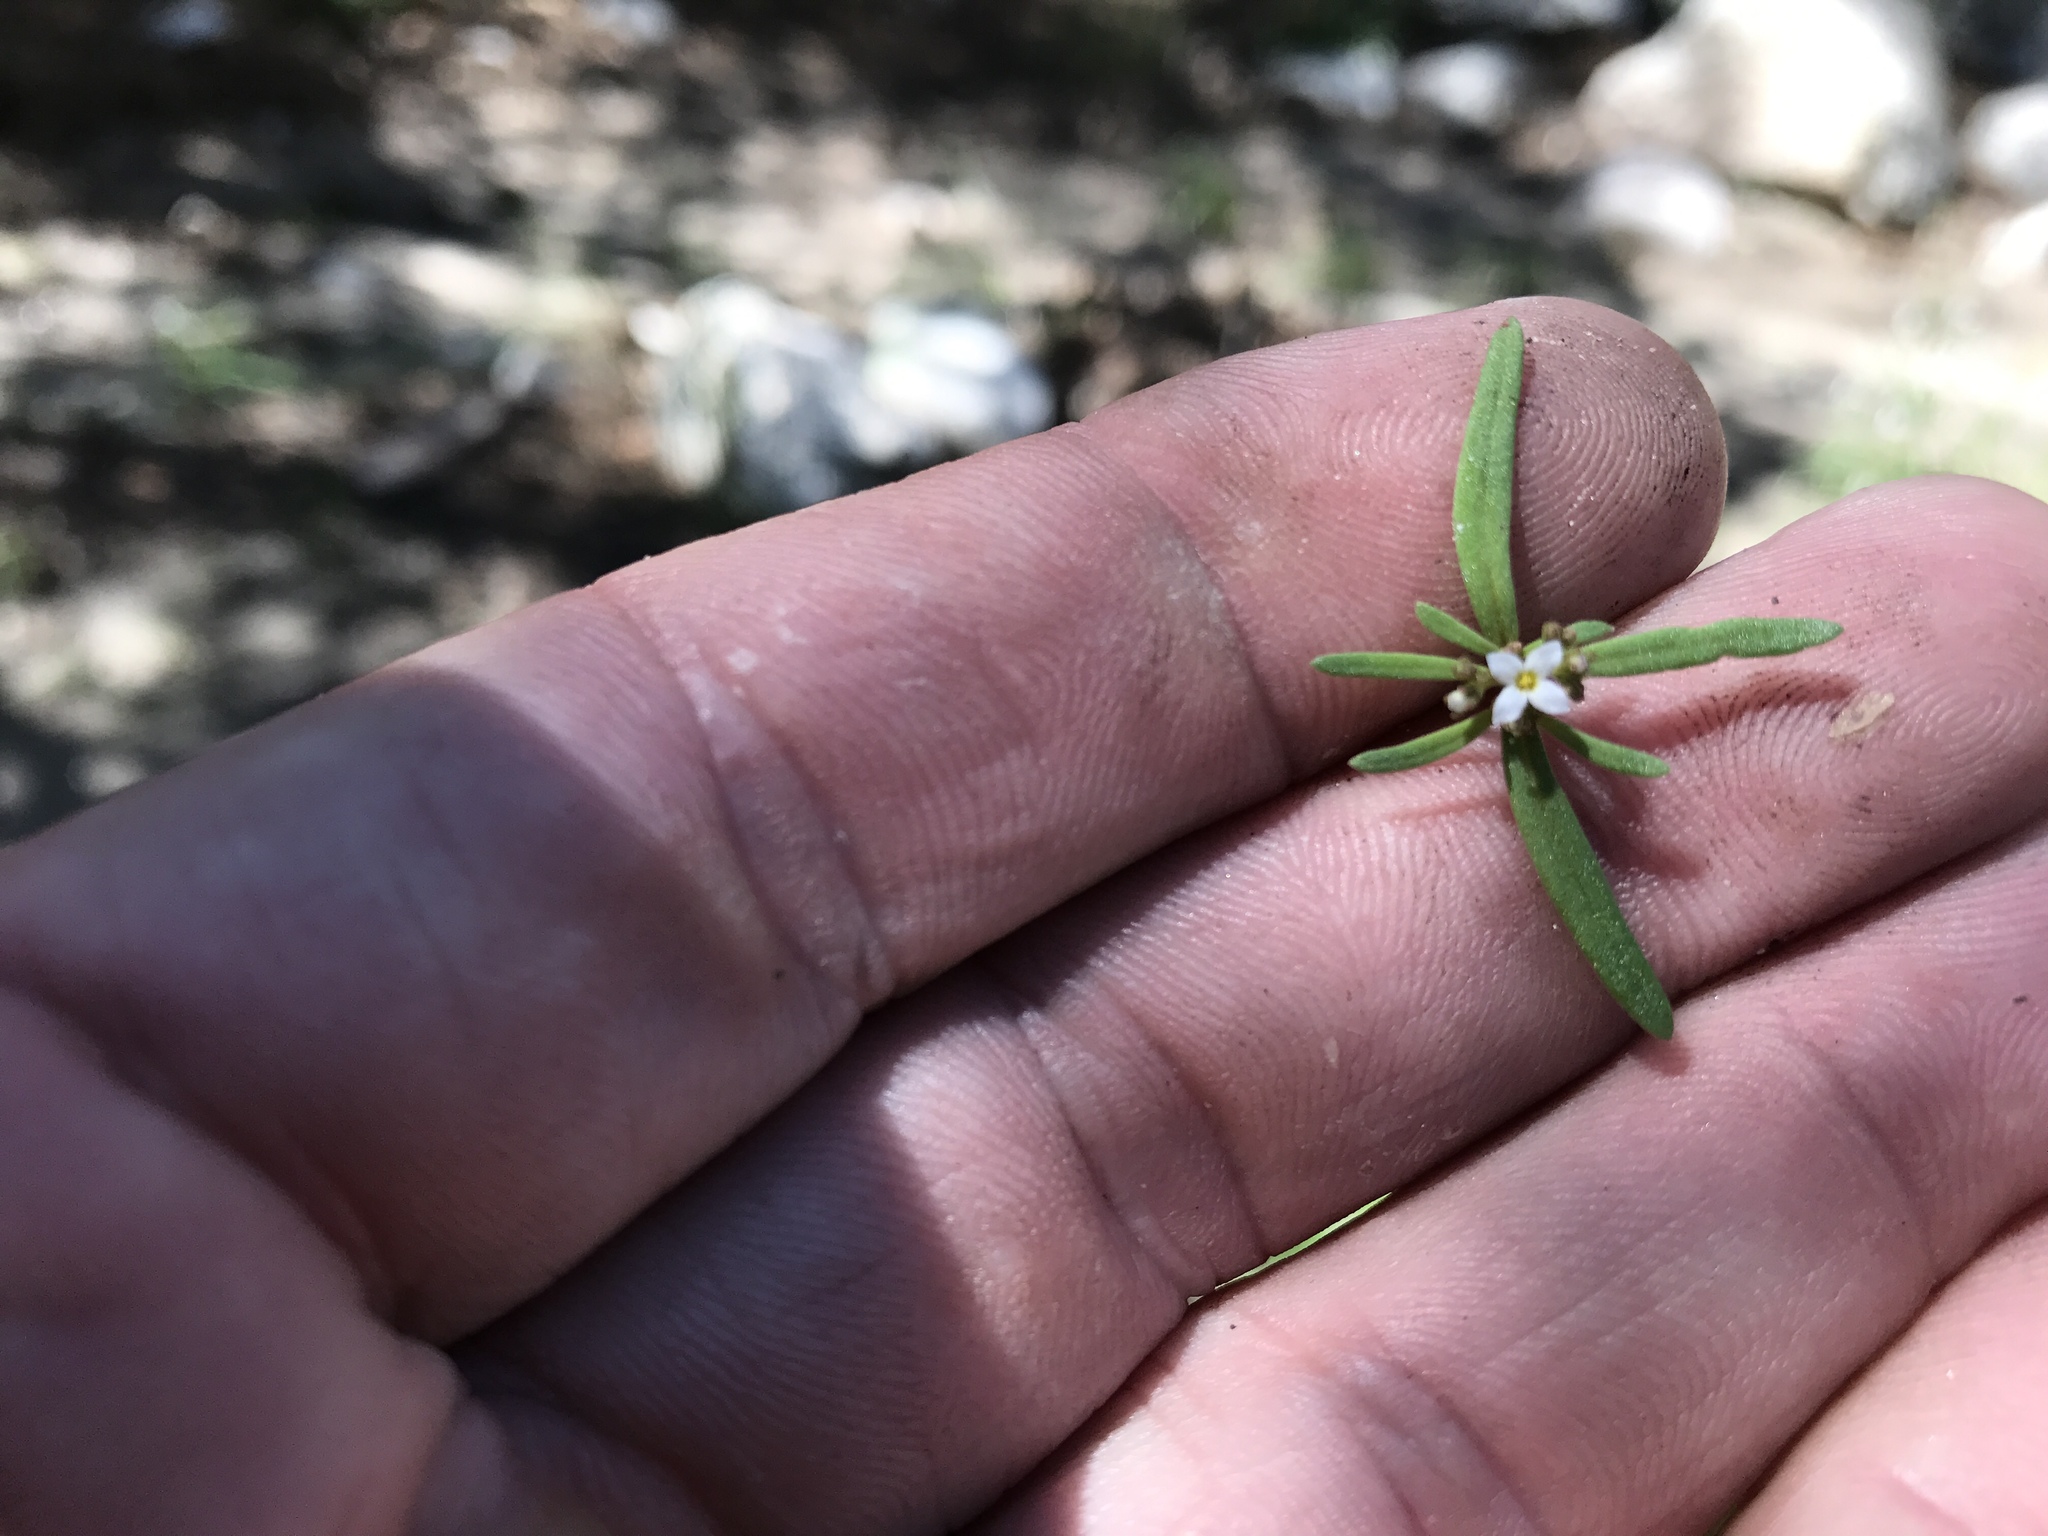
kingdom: Plantae
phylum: Tracheophyta
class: Magnoliopsida
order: Gentianales
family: Rubiaceae
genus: Houstonia
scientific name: Houstonia wrightii
